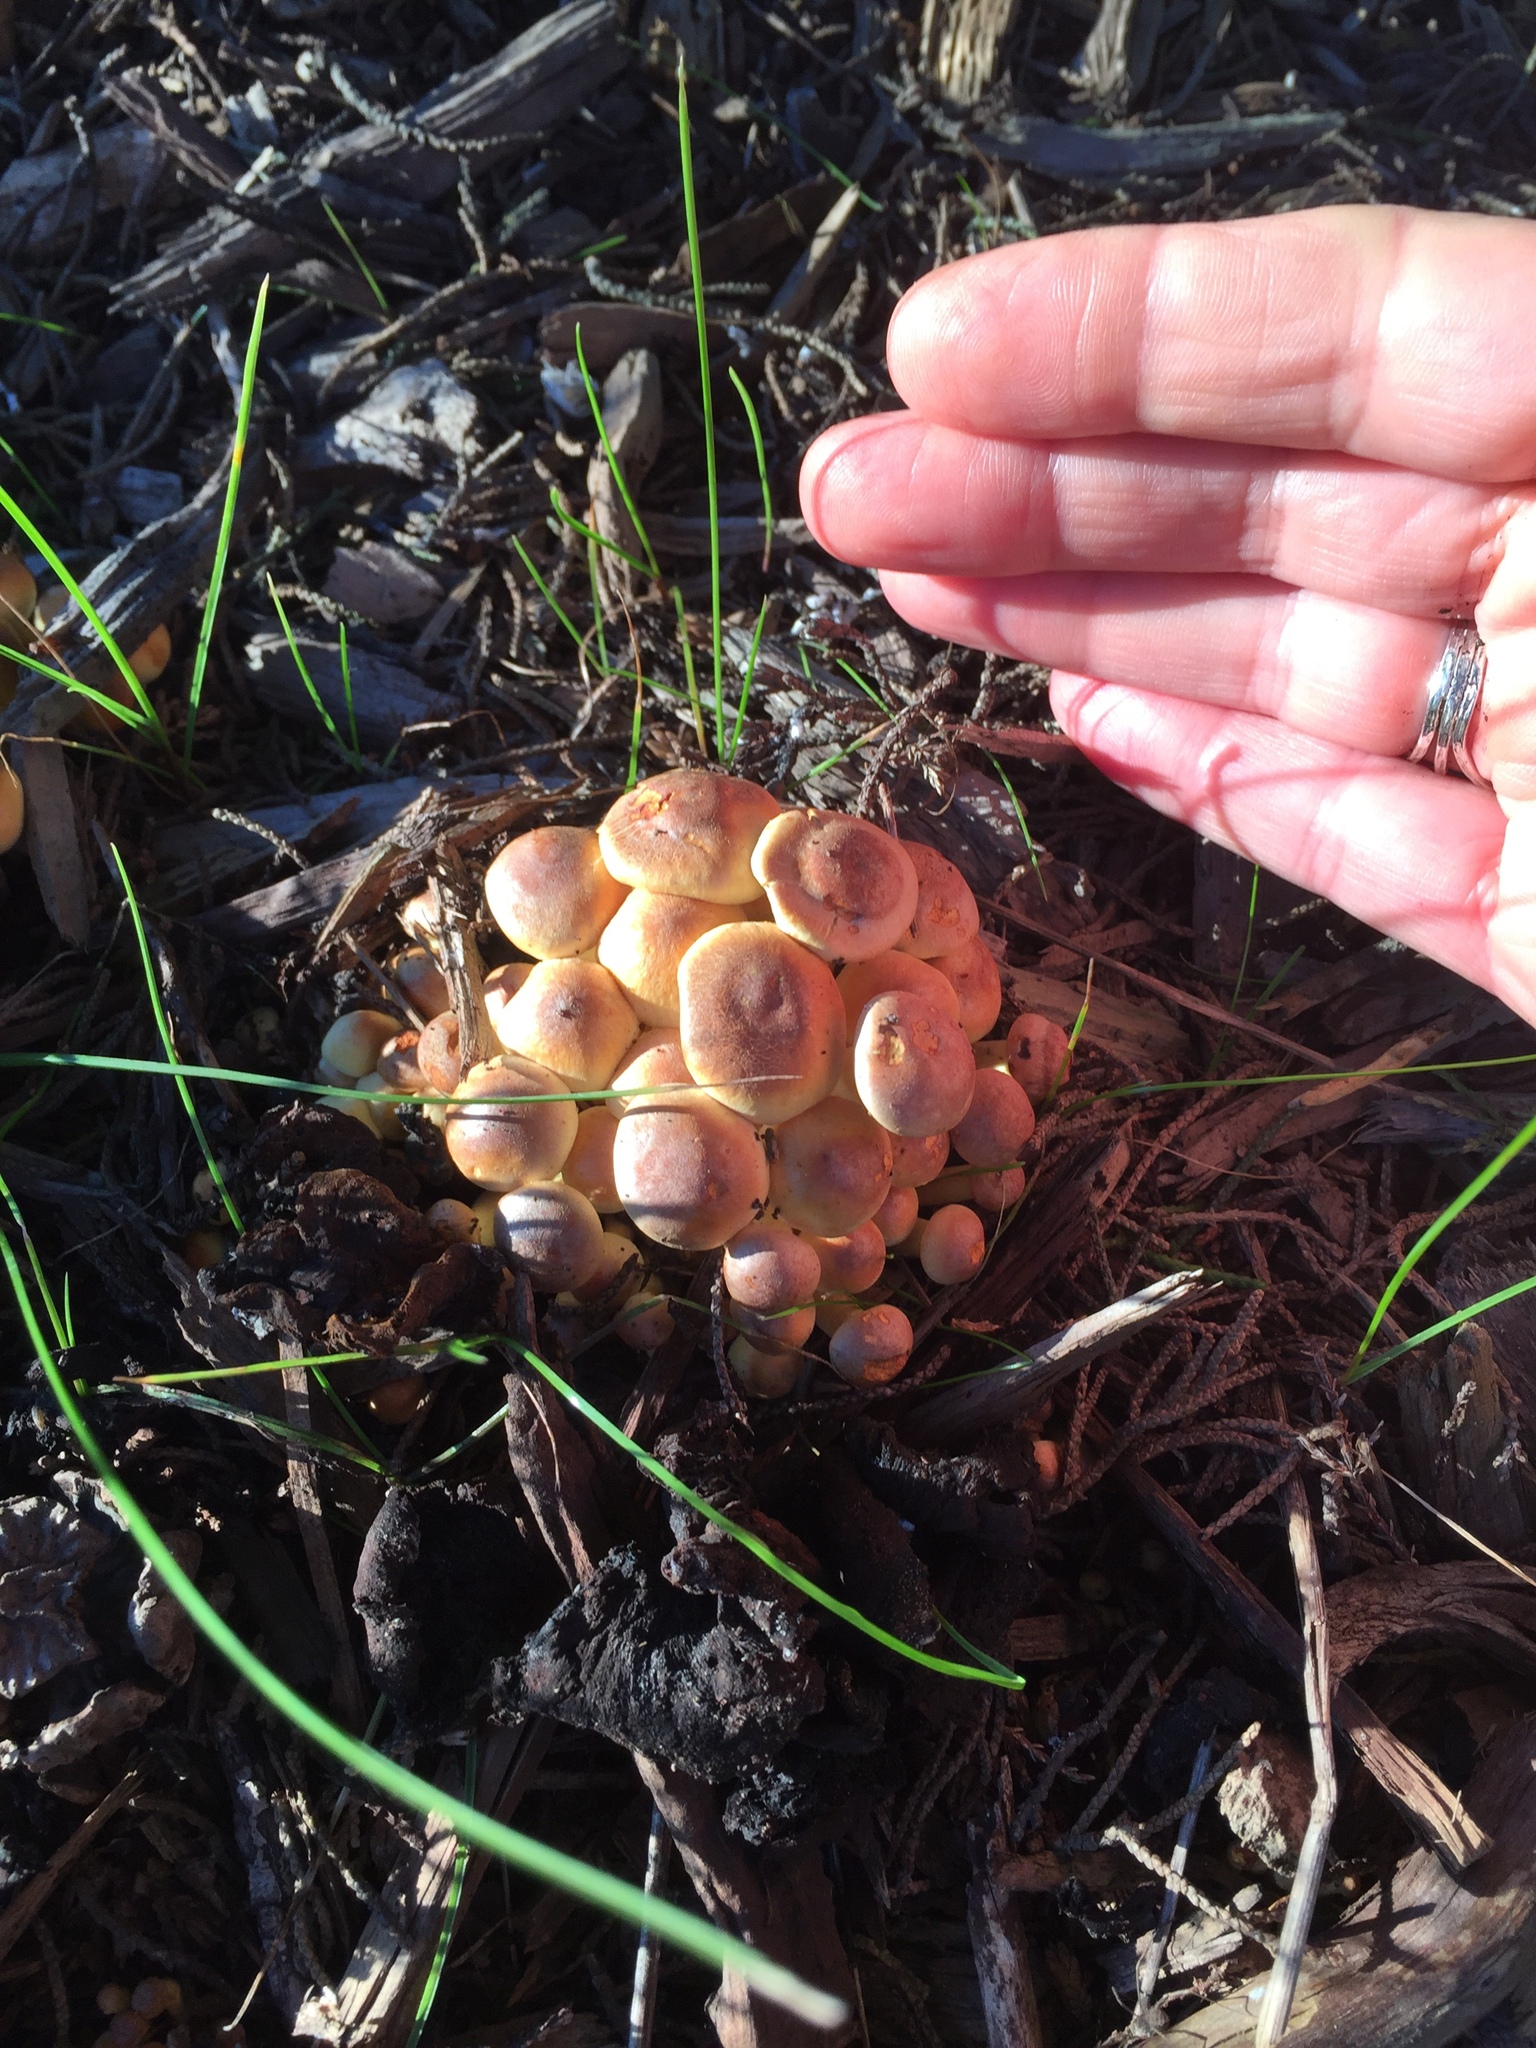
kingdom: Fungi
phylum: Basidiomycota
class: Agaricomycetes
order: Agaricales
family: Strophariaceae
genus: Hypholoma
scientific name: Hypholoma fasciculare
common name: Sulphur tuft
